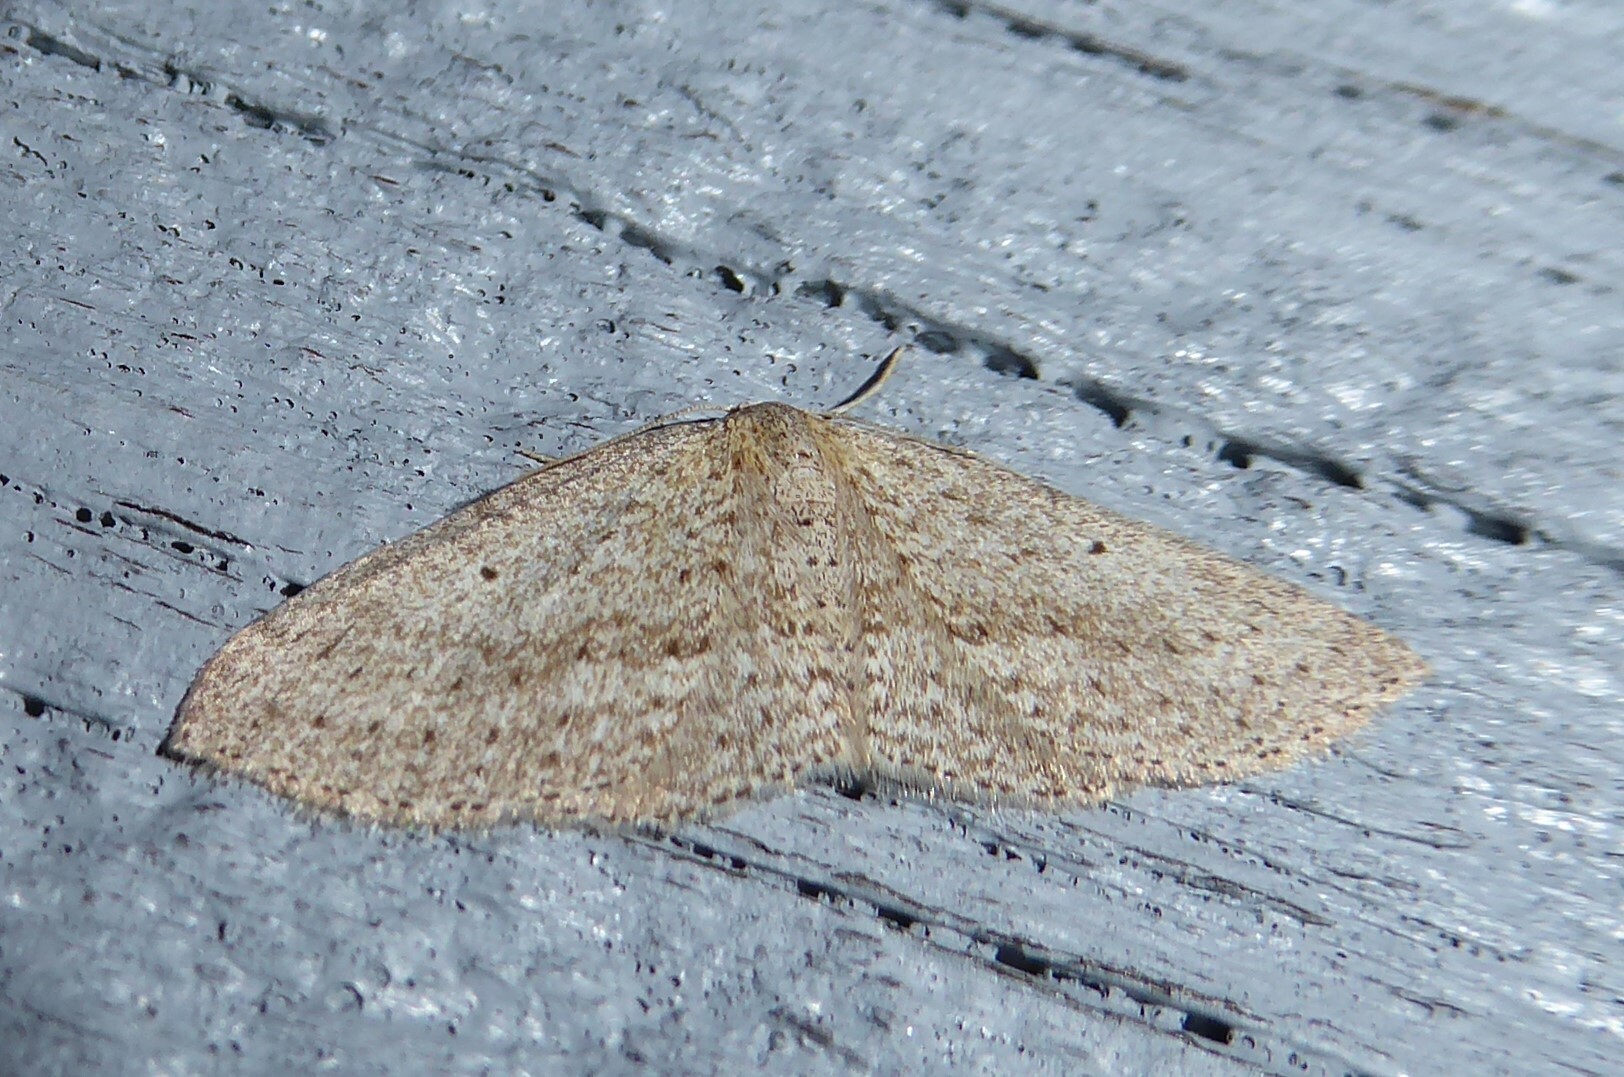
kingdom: Animalia
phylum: Arthropoda
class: Insecta
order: Lepidoptera
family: Geometridae
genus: Poecilasthena
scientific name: Poecilasthena schistaria
